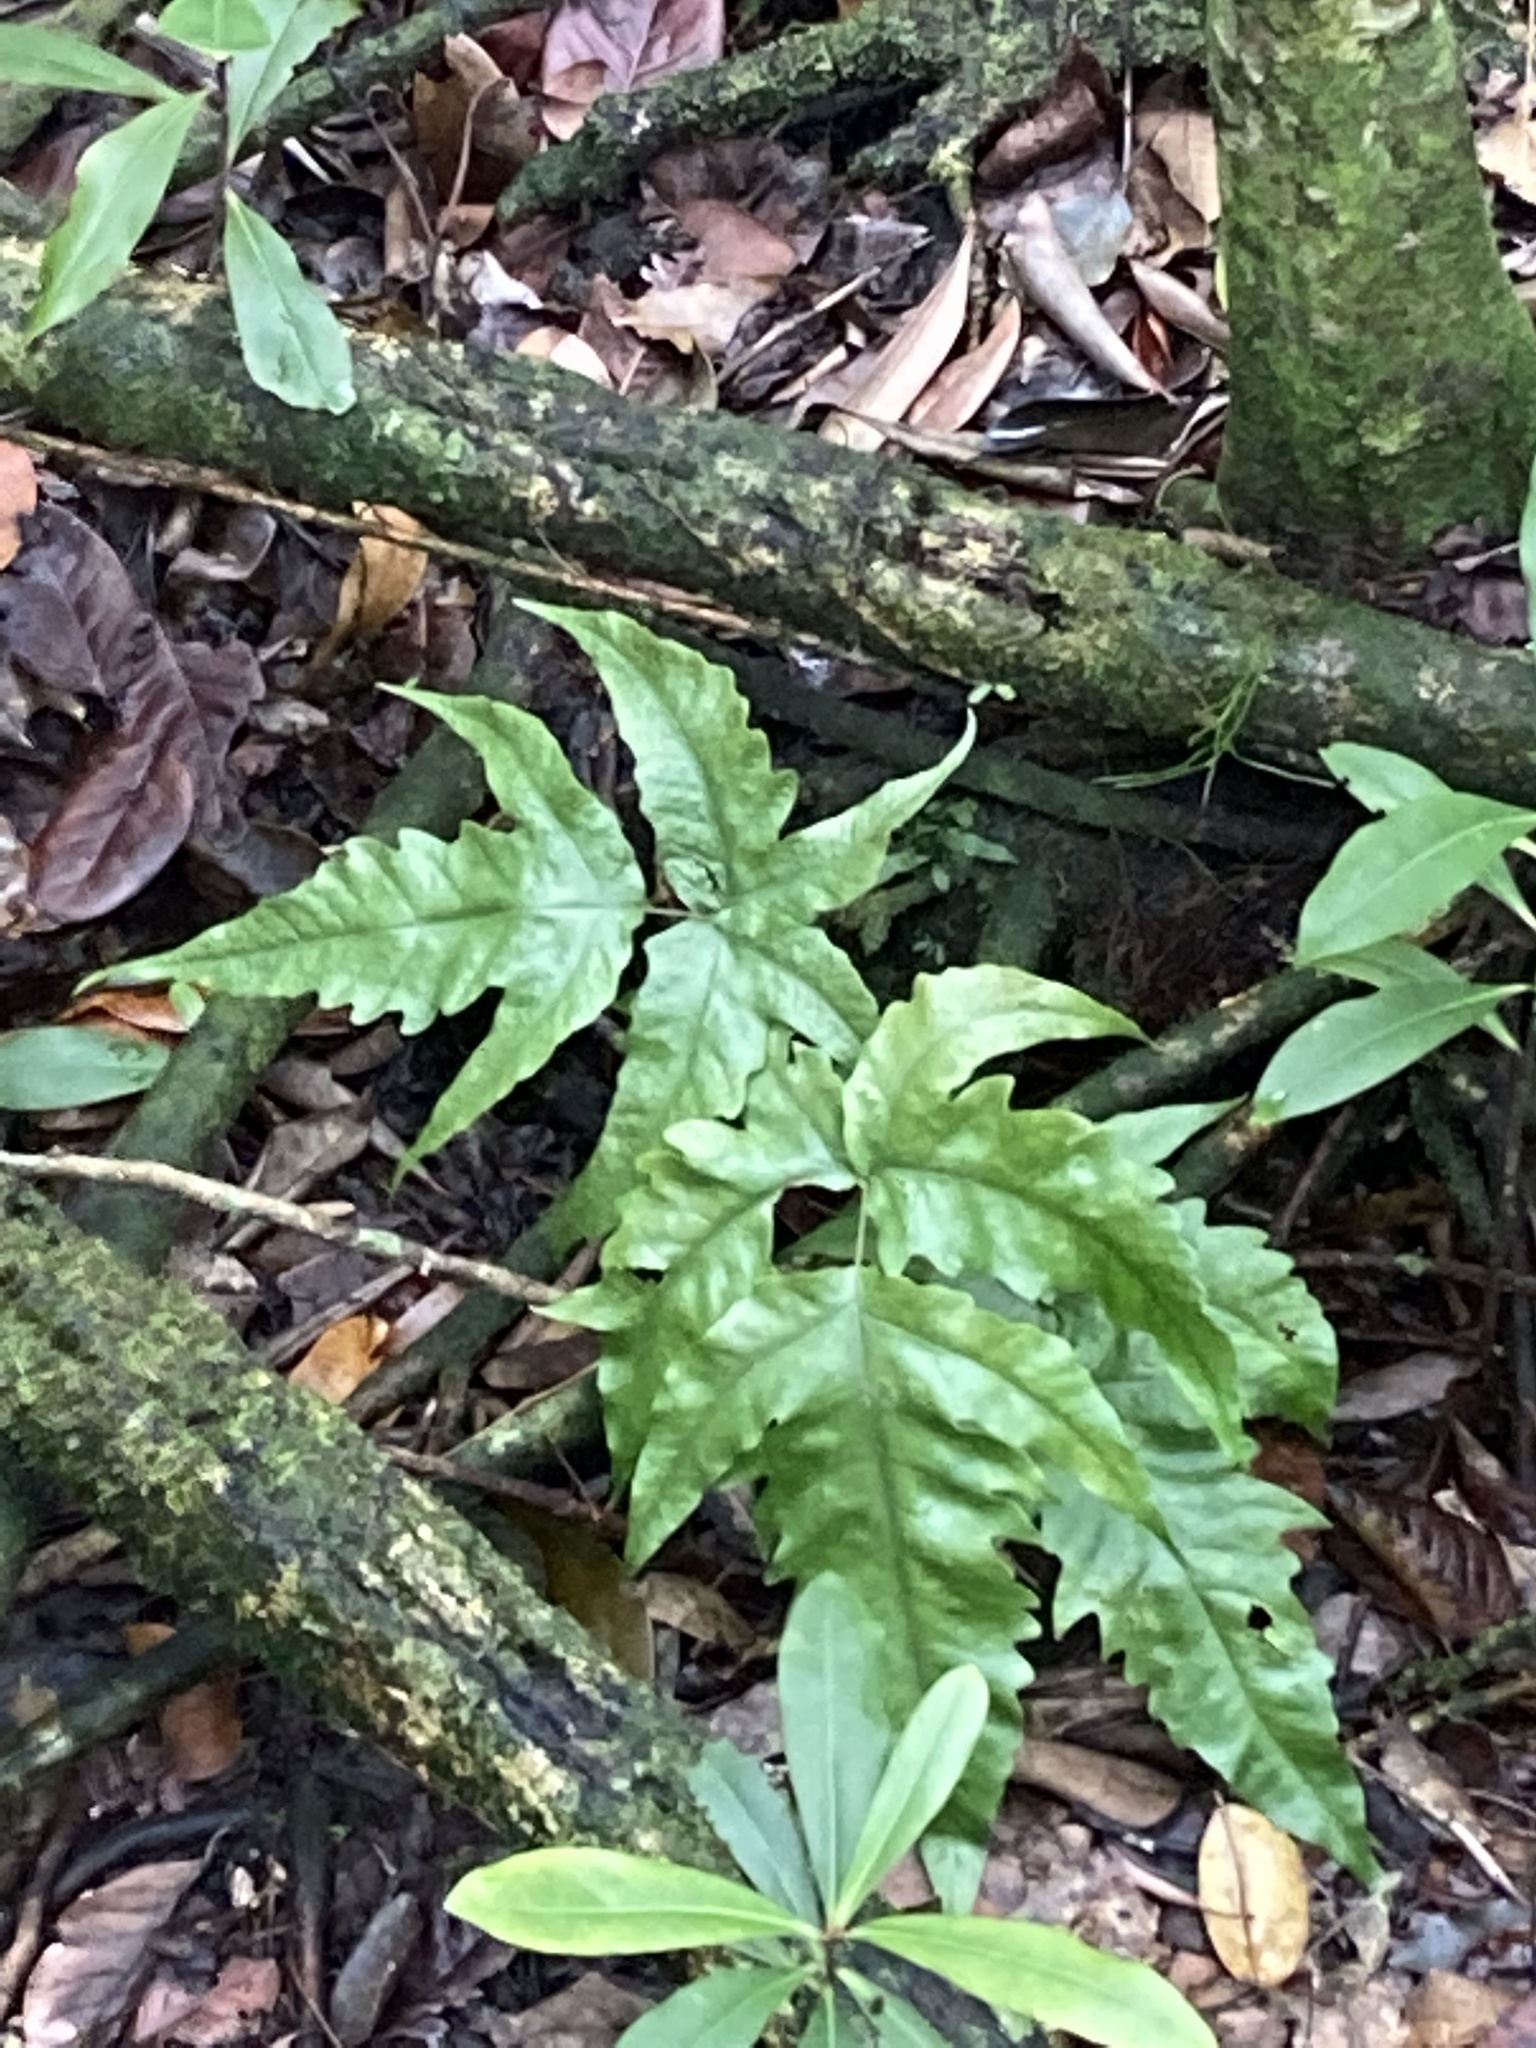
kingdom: Plantae
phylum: Tracheophyta
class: Polypodiopsida
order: Polypodiales
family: Tectariaceae
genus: Tectaria
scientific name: Tectaria heracleifolia
